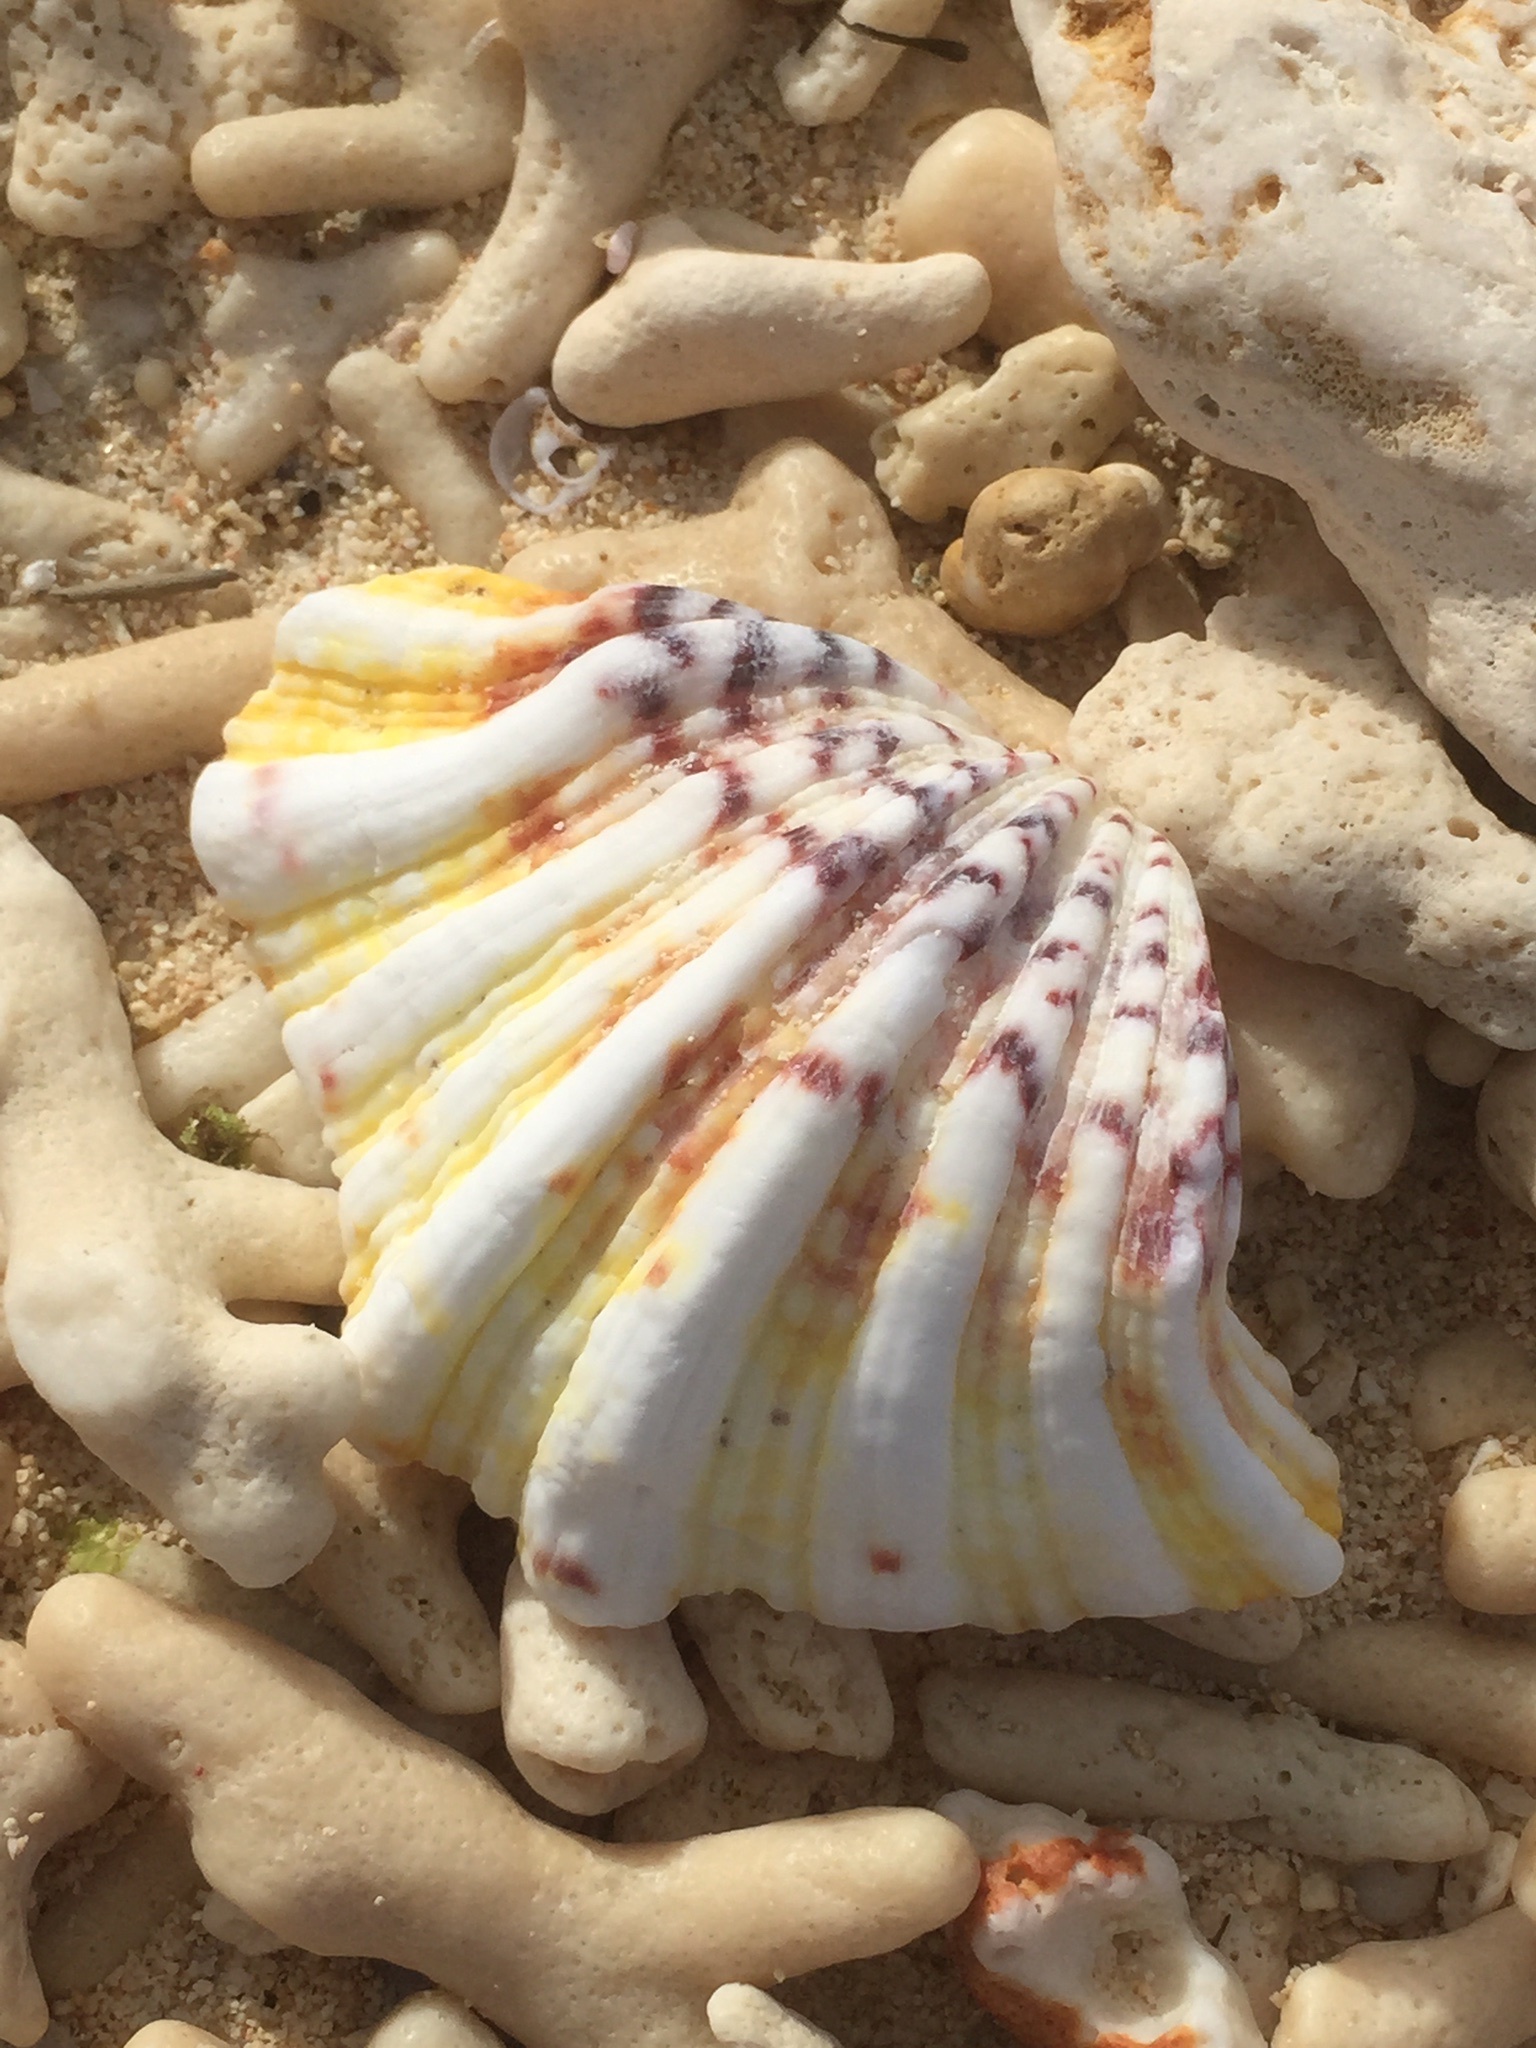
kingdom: Animalia
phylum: Mollusca
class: Bivalvia
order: Cardiida
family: Cardiidae
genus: Hippopus
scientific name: Hippopus hippopus
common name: Bear paw clam
